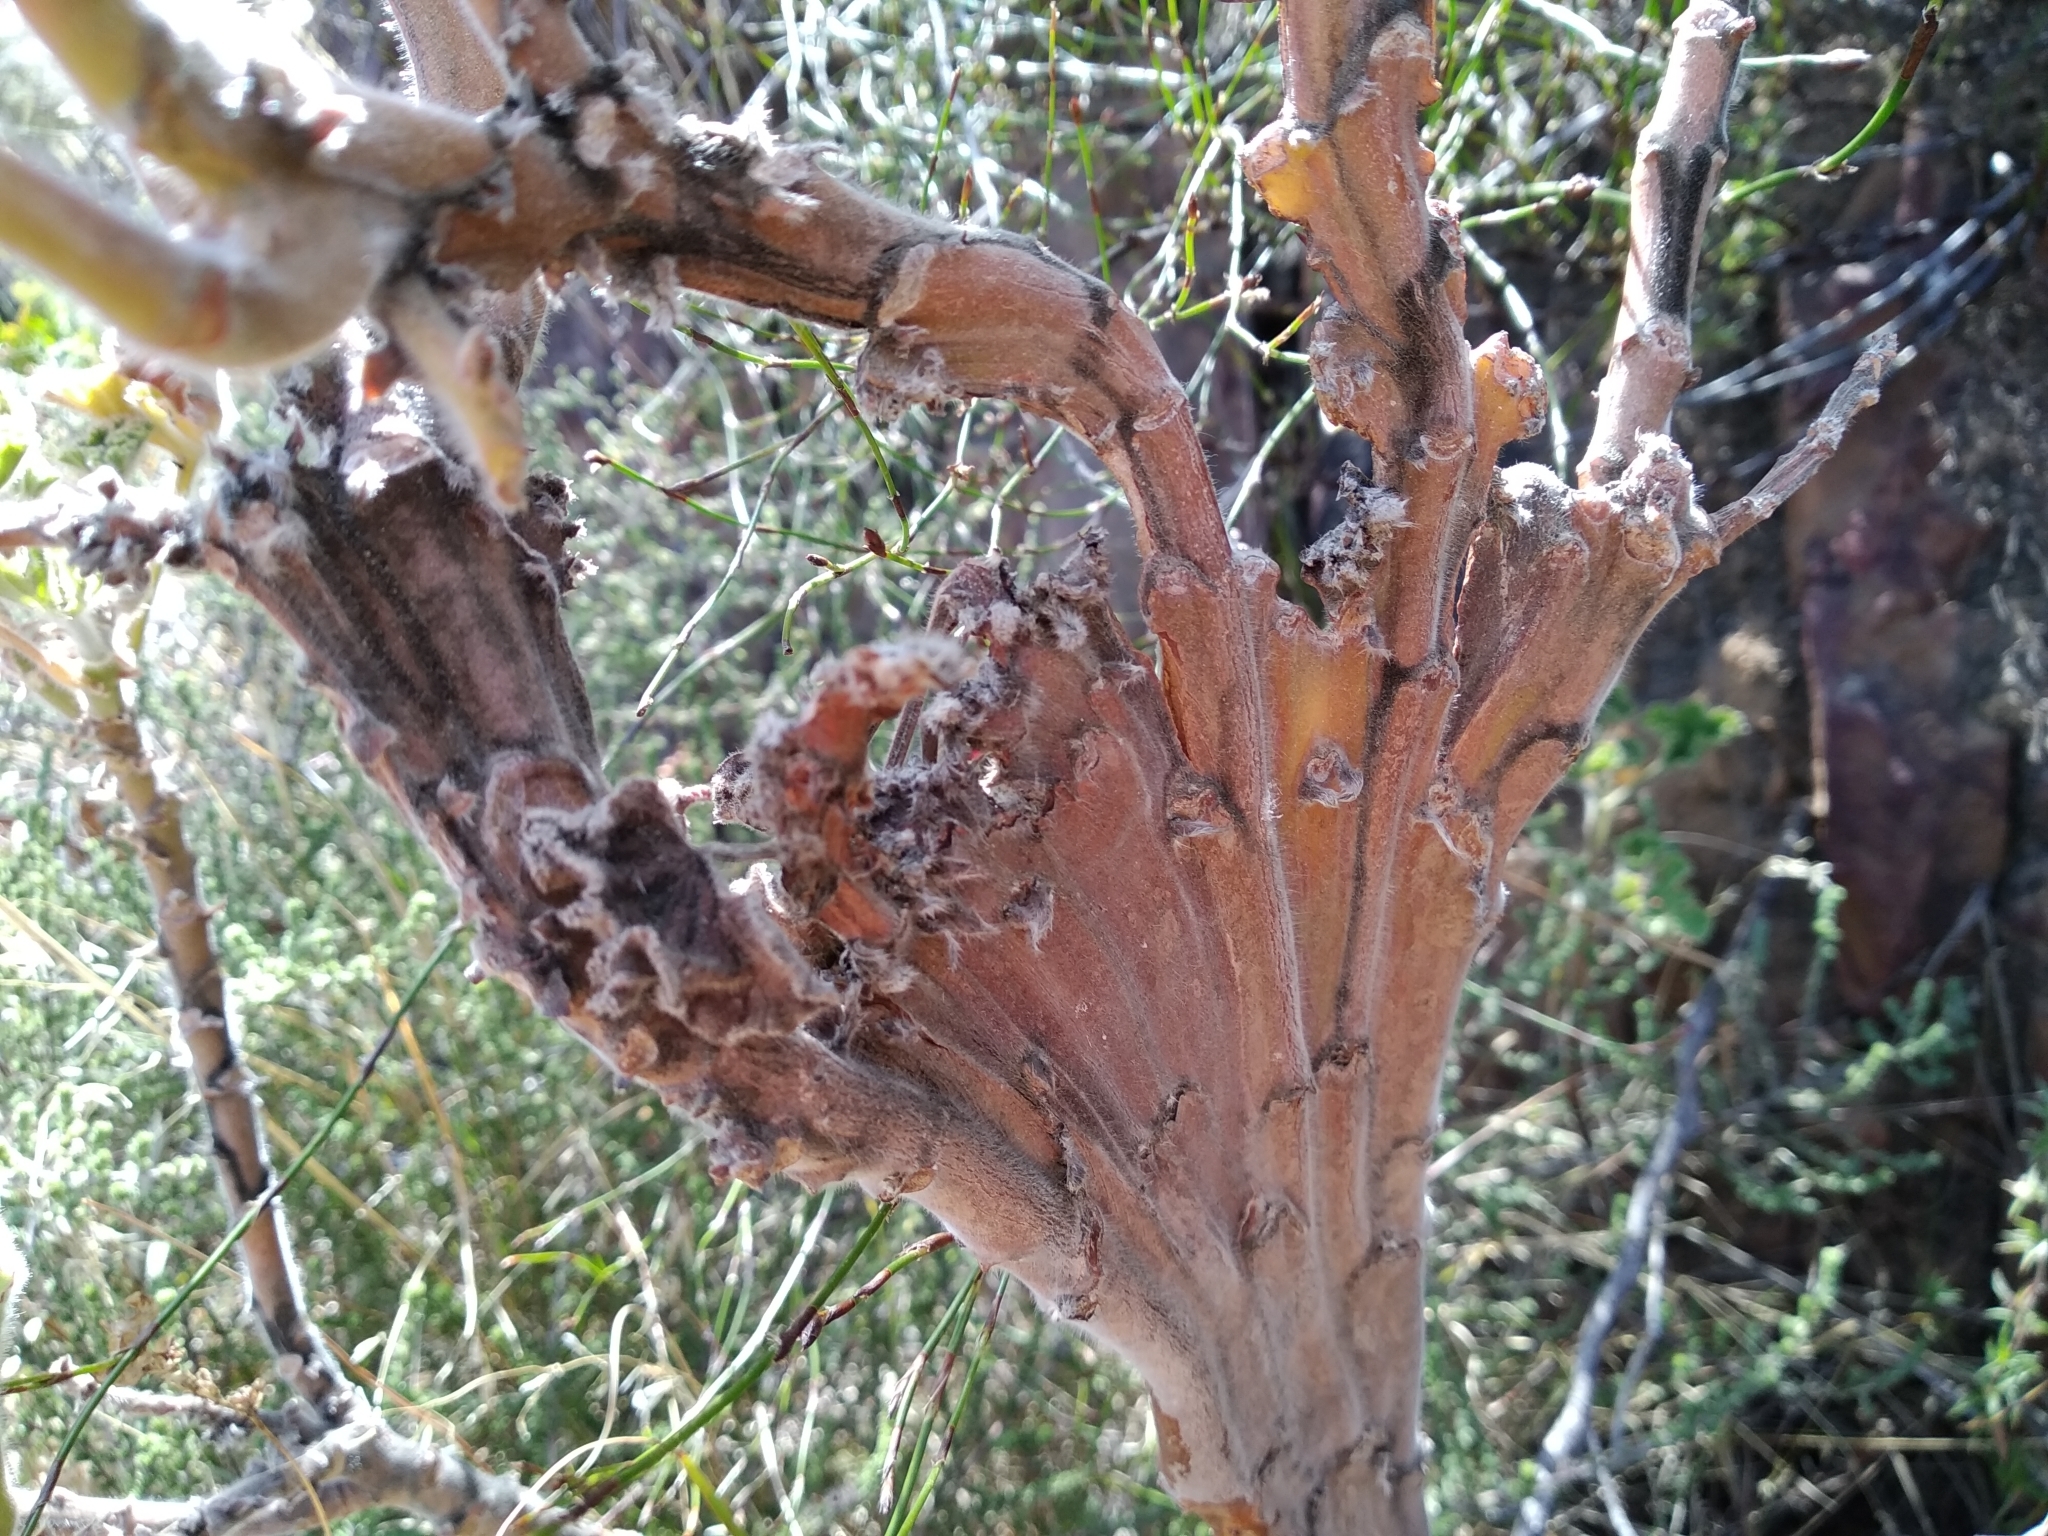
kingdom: Plantae
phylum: Tracheophyta
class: Magnoliopsida
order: Geraniales
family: Geraniaceae
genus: Pelargonium
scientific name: Pelargonium cucullatum
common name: Tree pelargonium
